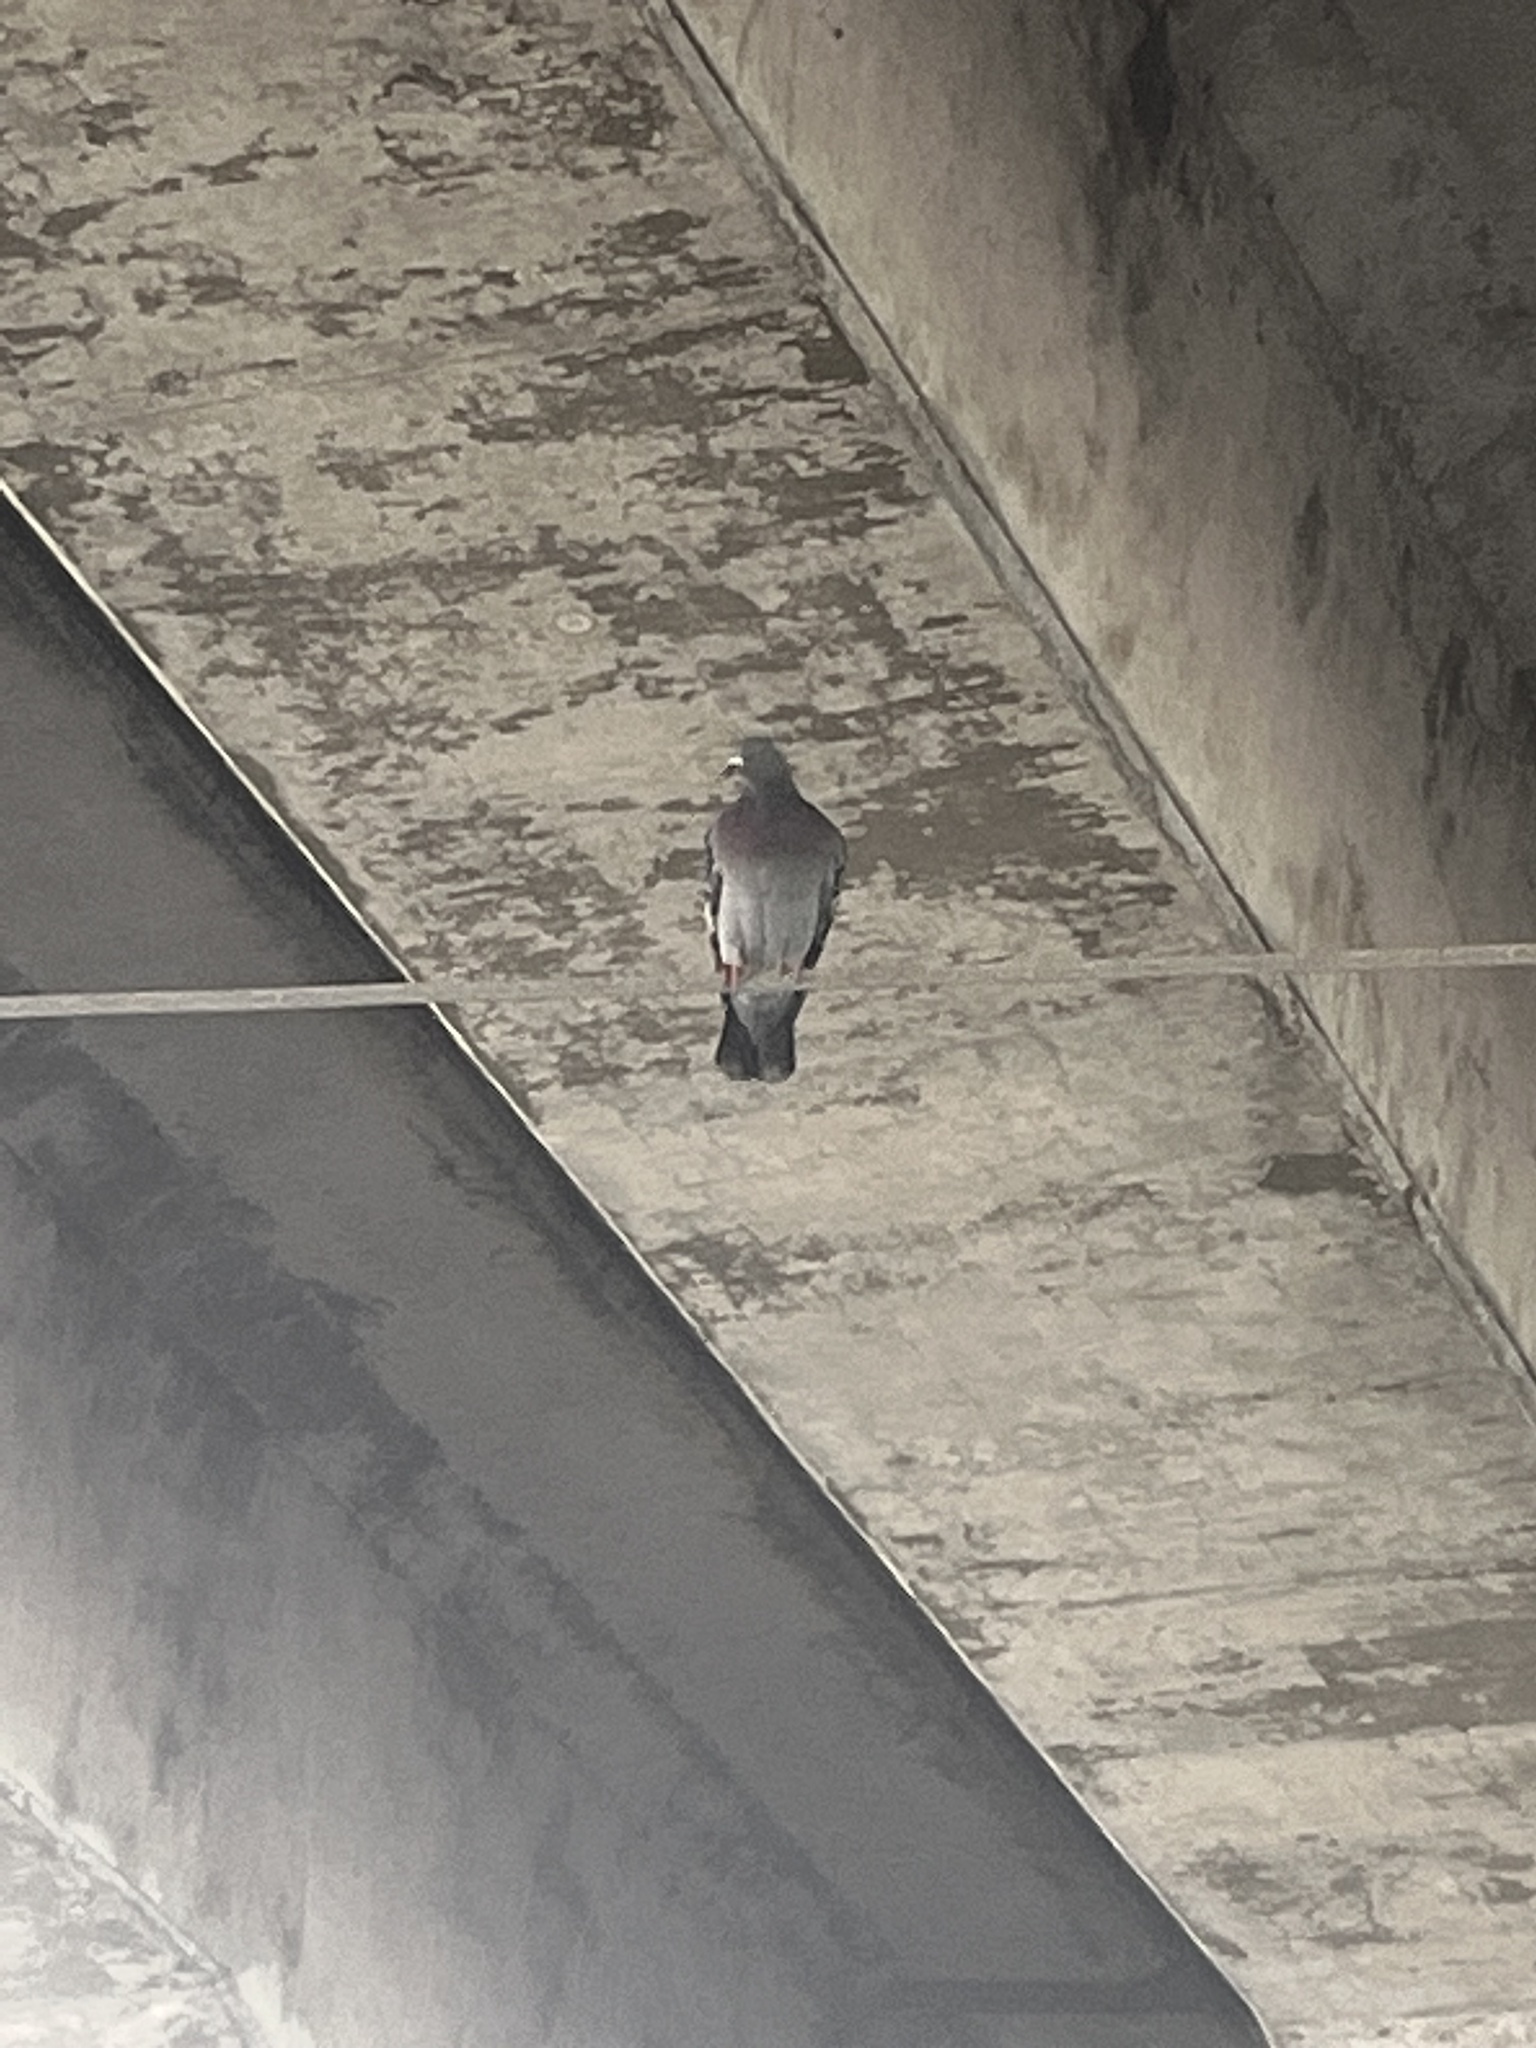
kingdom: Animalia
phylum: Chordata
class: Aves
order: Columbiformes
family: Columbidae
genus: Columba
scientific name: Columba livia
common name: Rock pigeon
